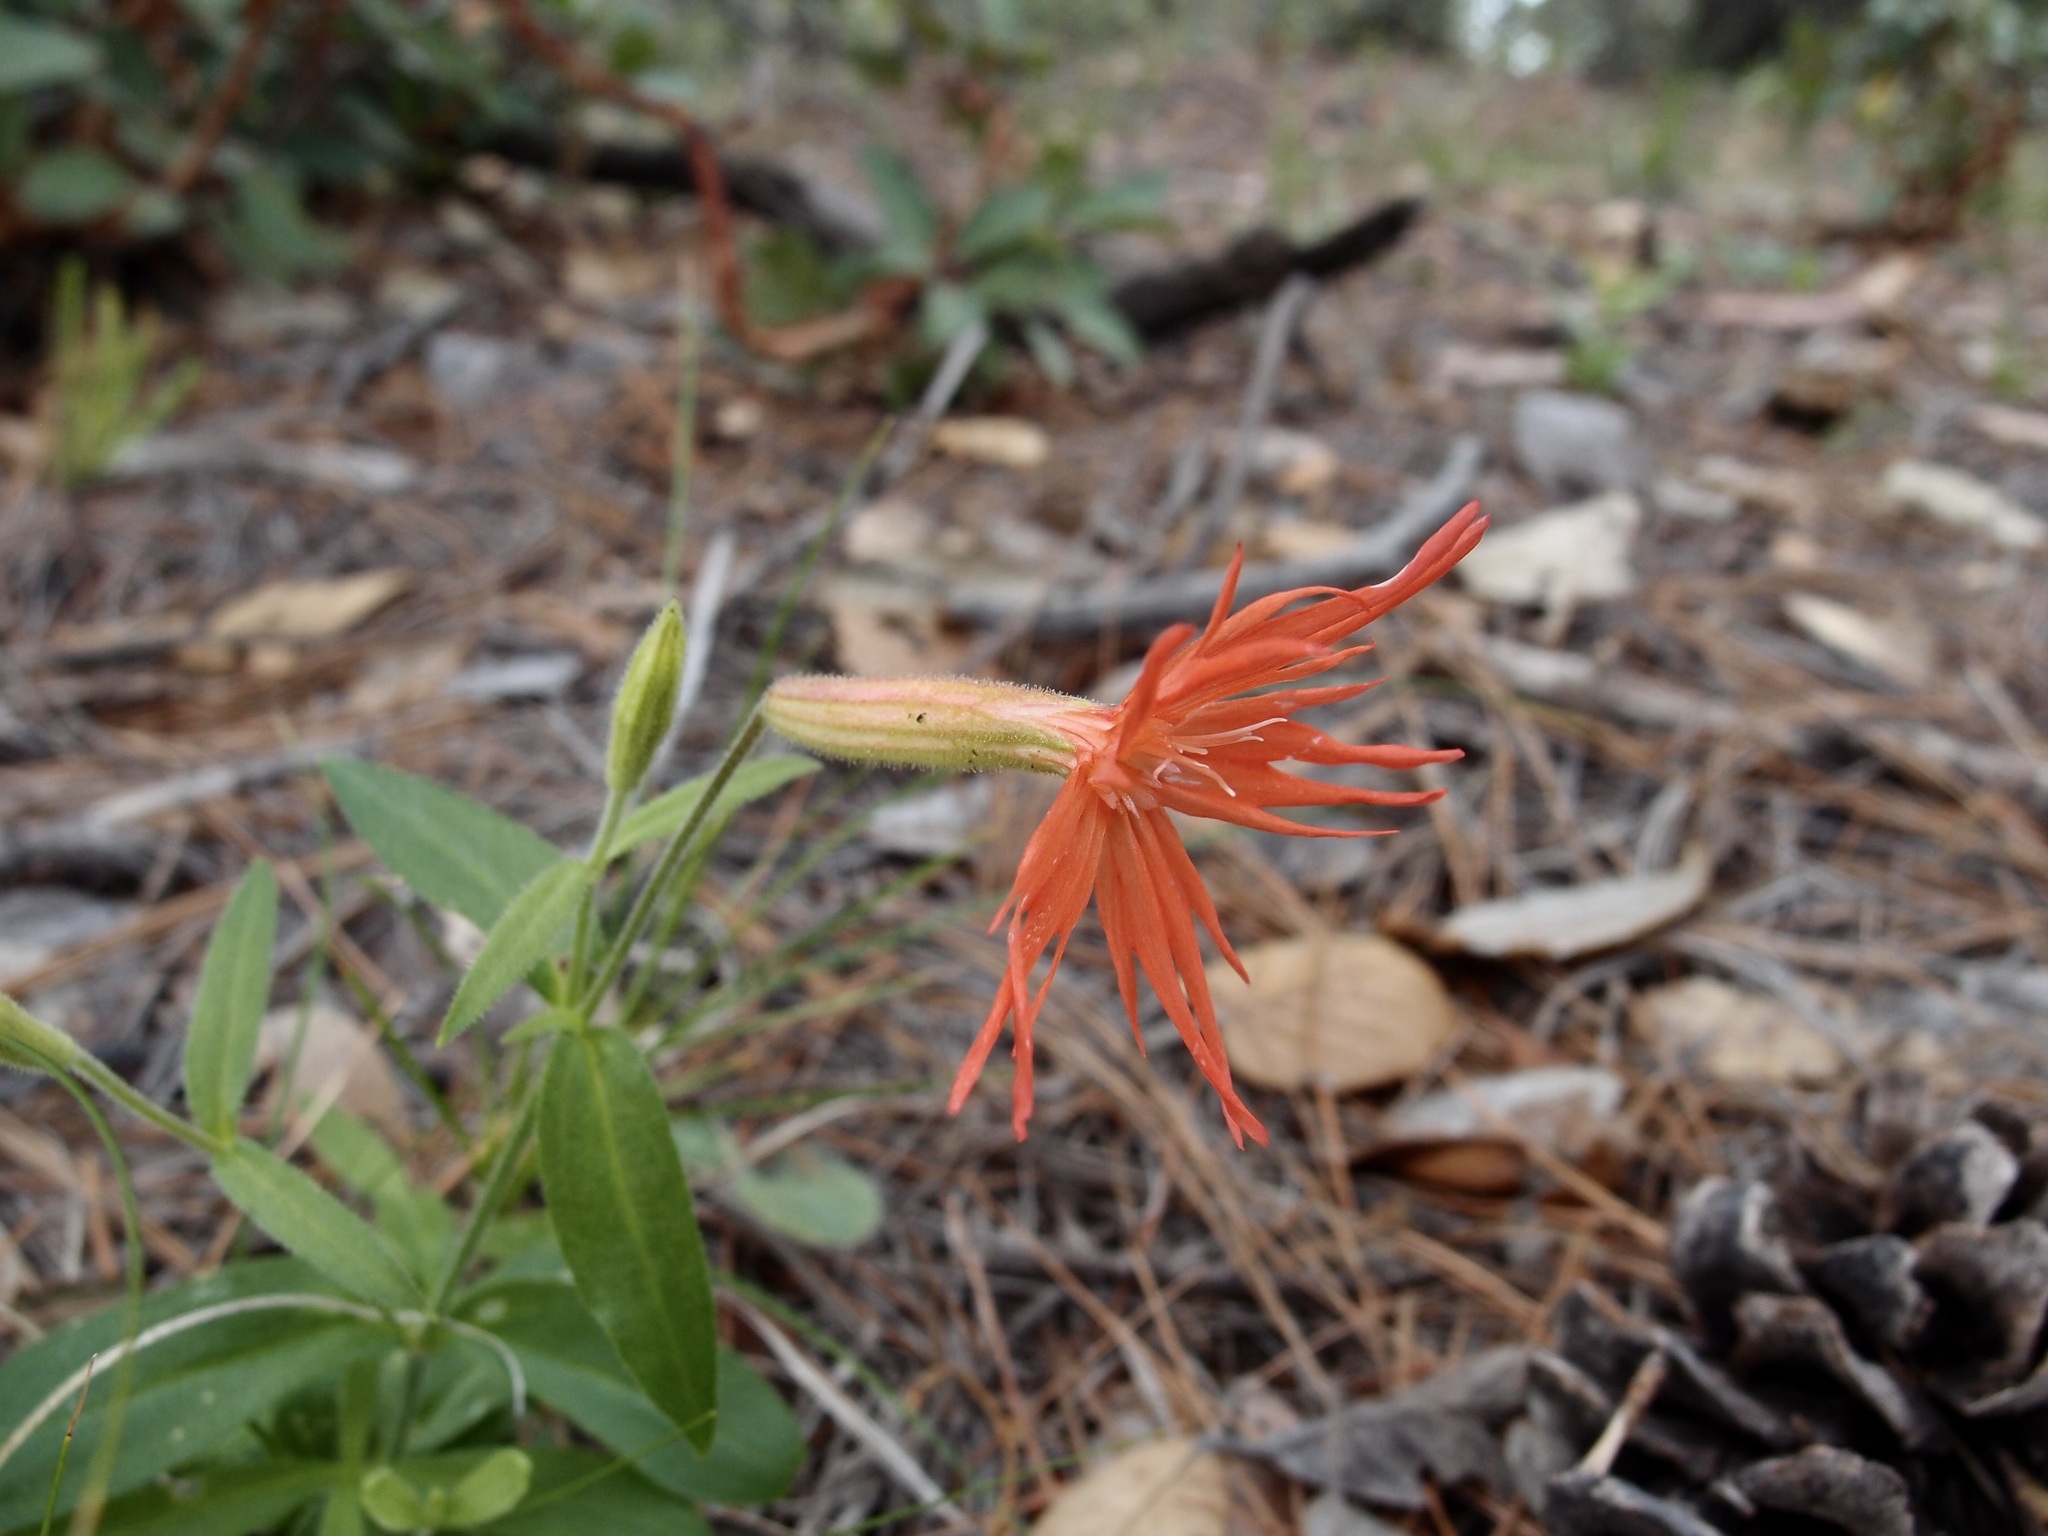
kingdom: Plantae
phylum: Tracheophyta
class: Magnoliopsida
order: Caryophyllales
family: Caryophyllaceae
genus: Silene
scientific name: Silene laciniata
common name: Indian-pink
